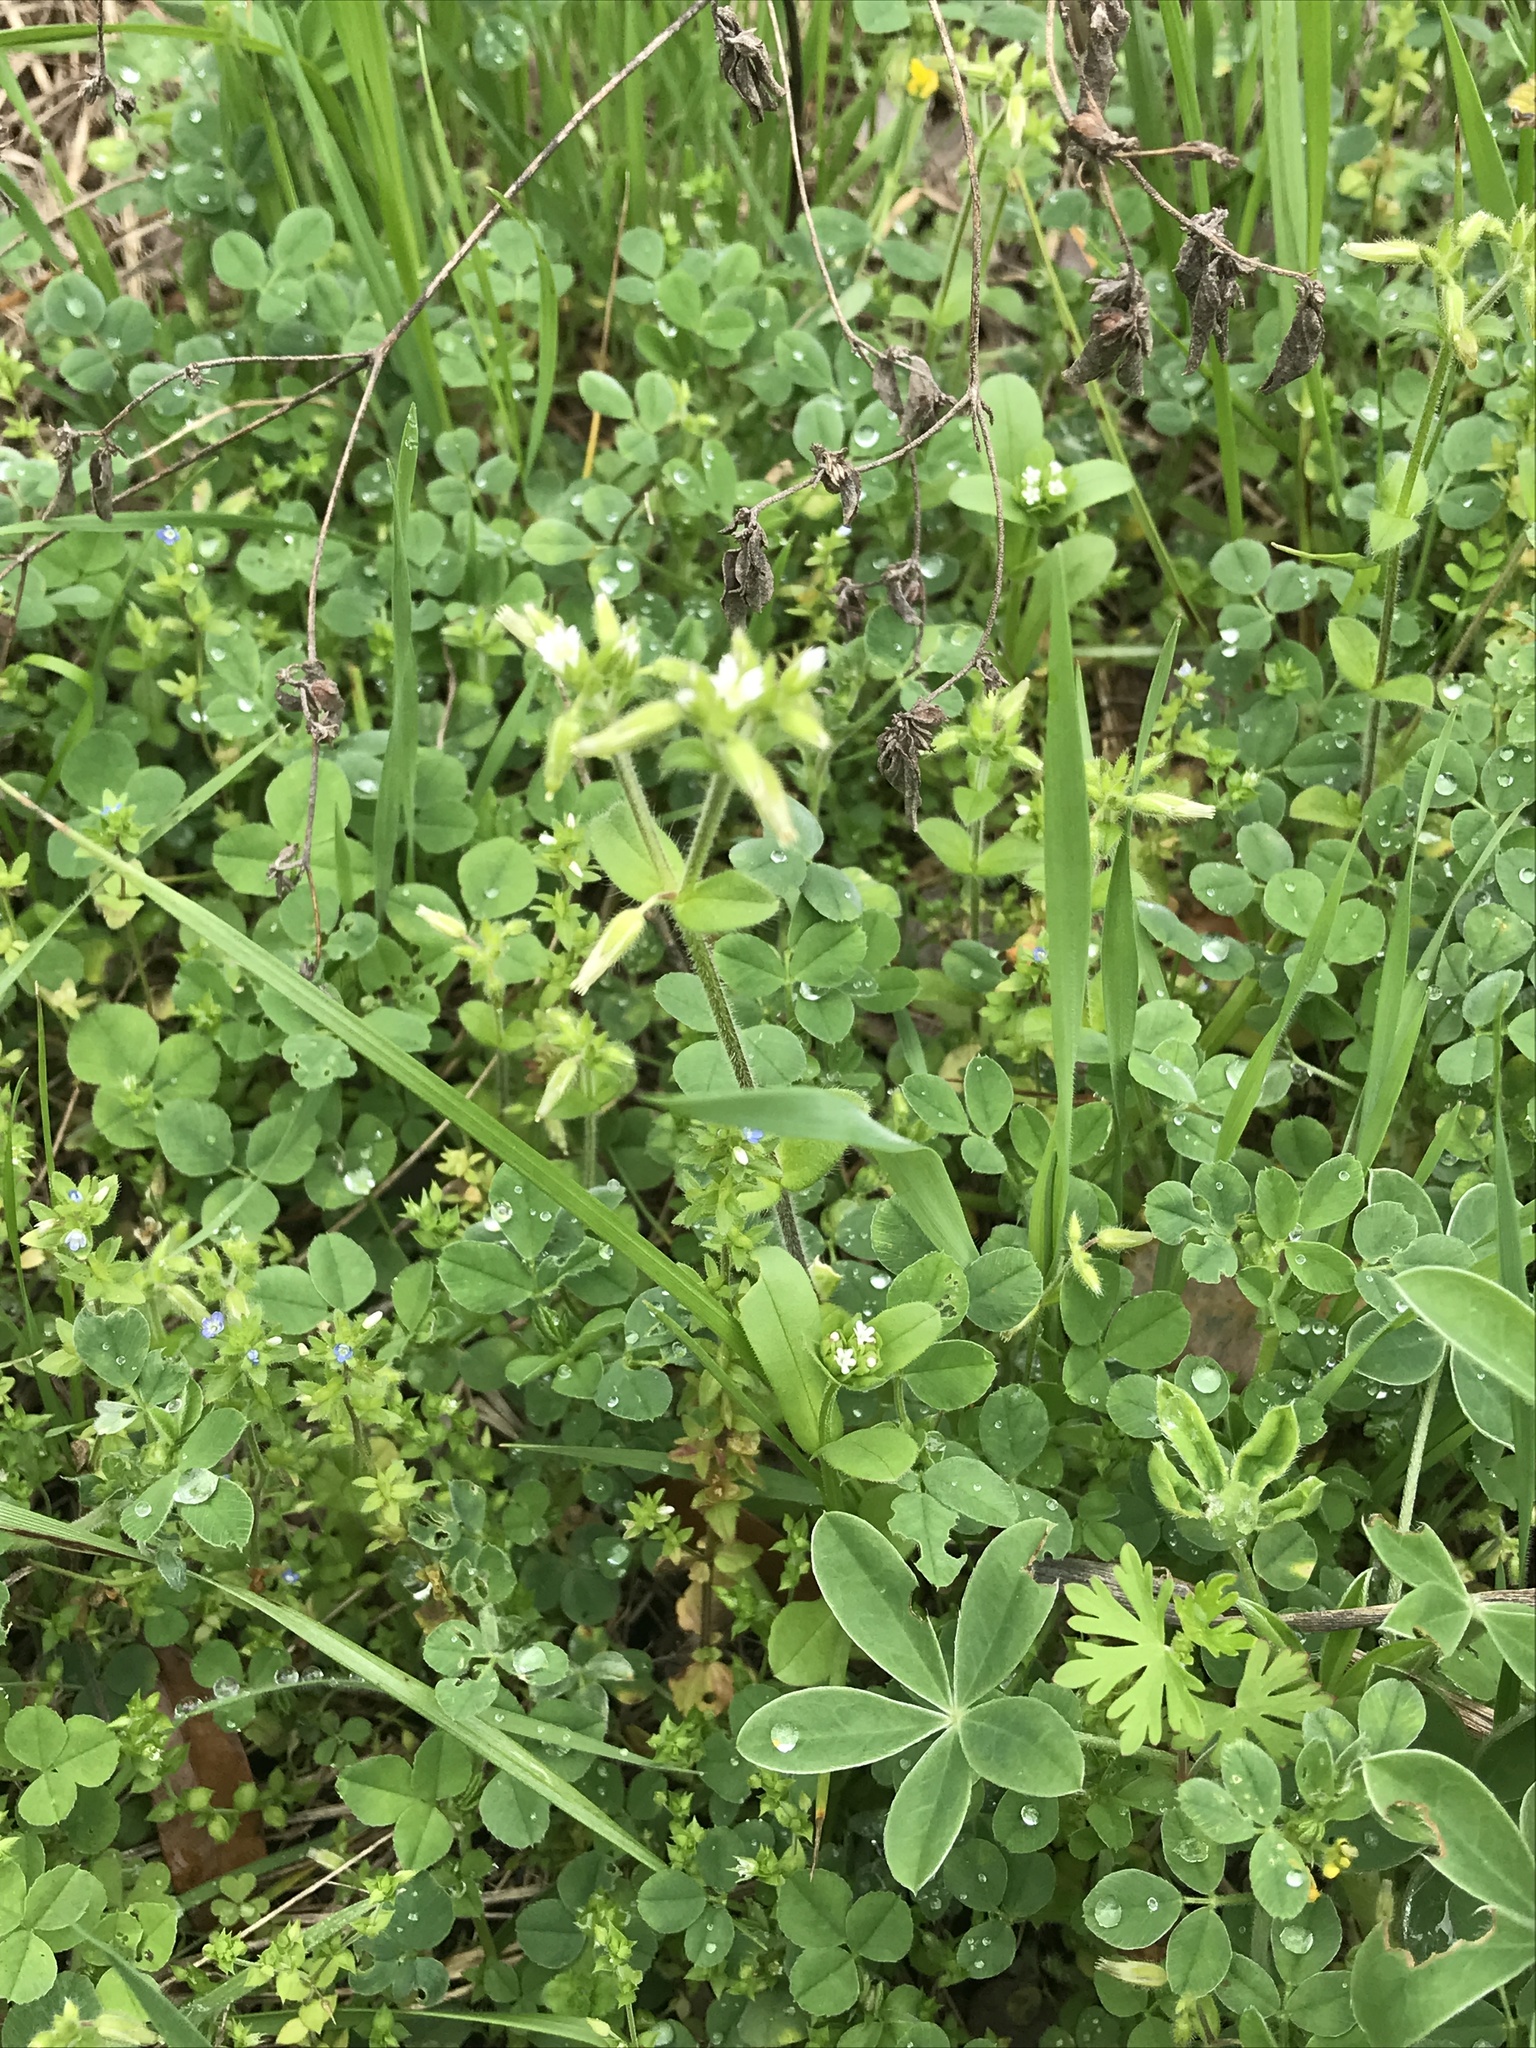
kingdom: Plantae
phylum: Tracheophyta
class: Magnoliopsida
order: Caryophyllales
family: Caryophyllaceae
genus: Cerastium
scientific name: Cerastium glomeratum
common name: Sticky chickweed
